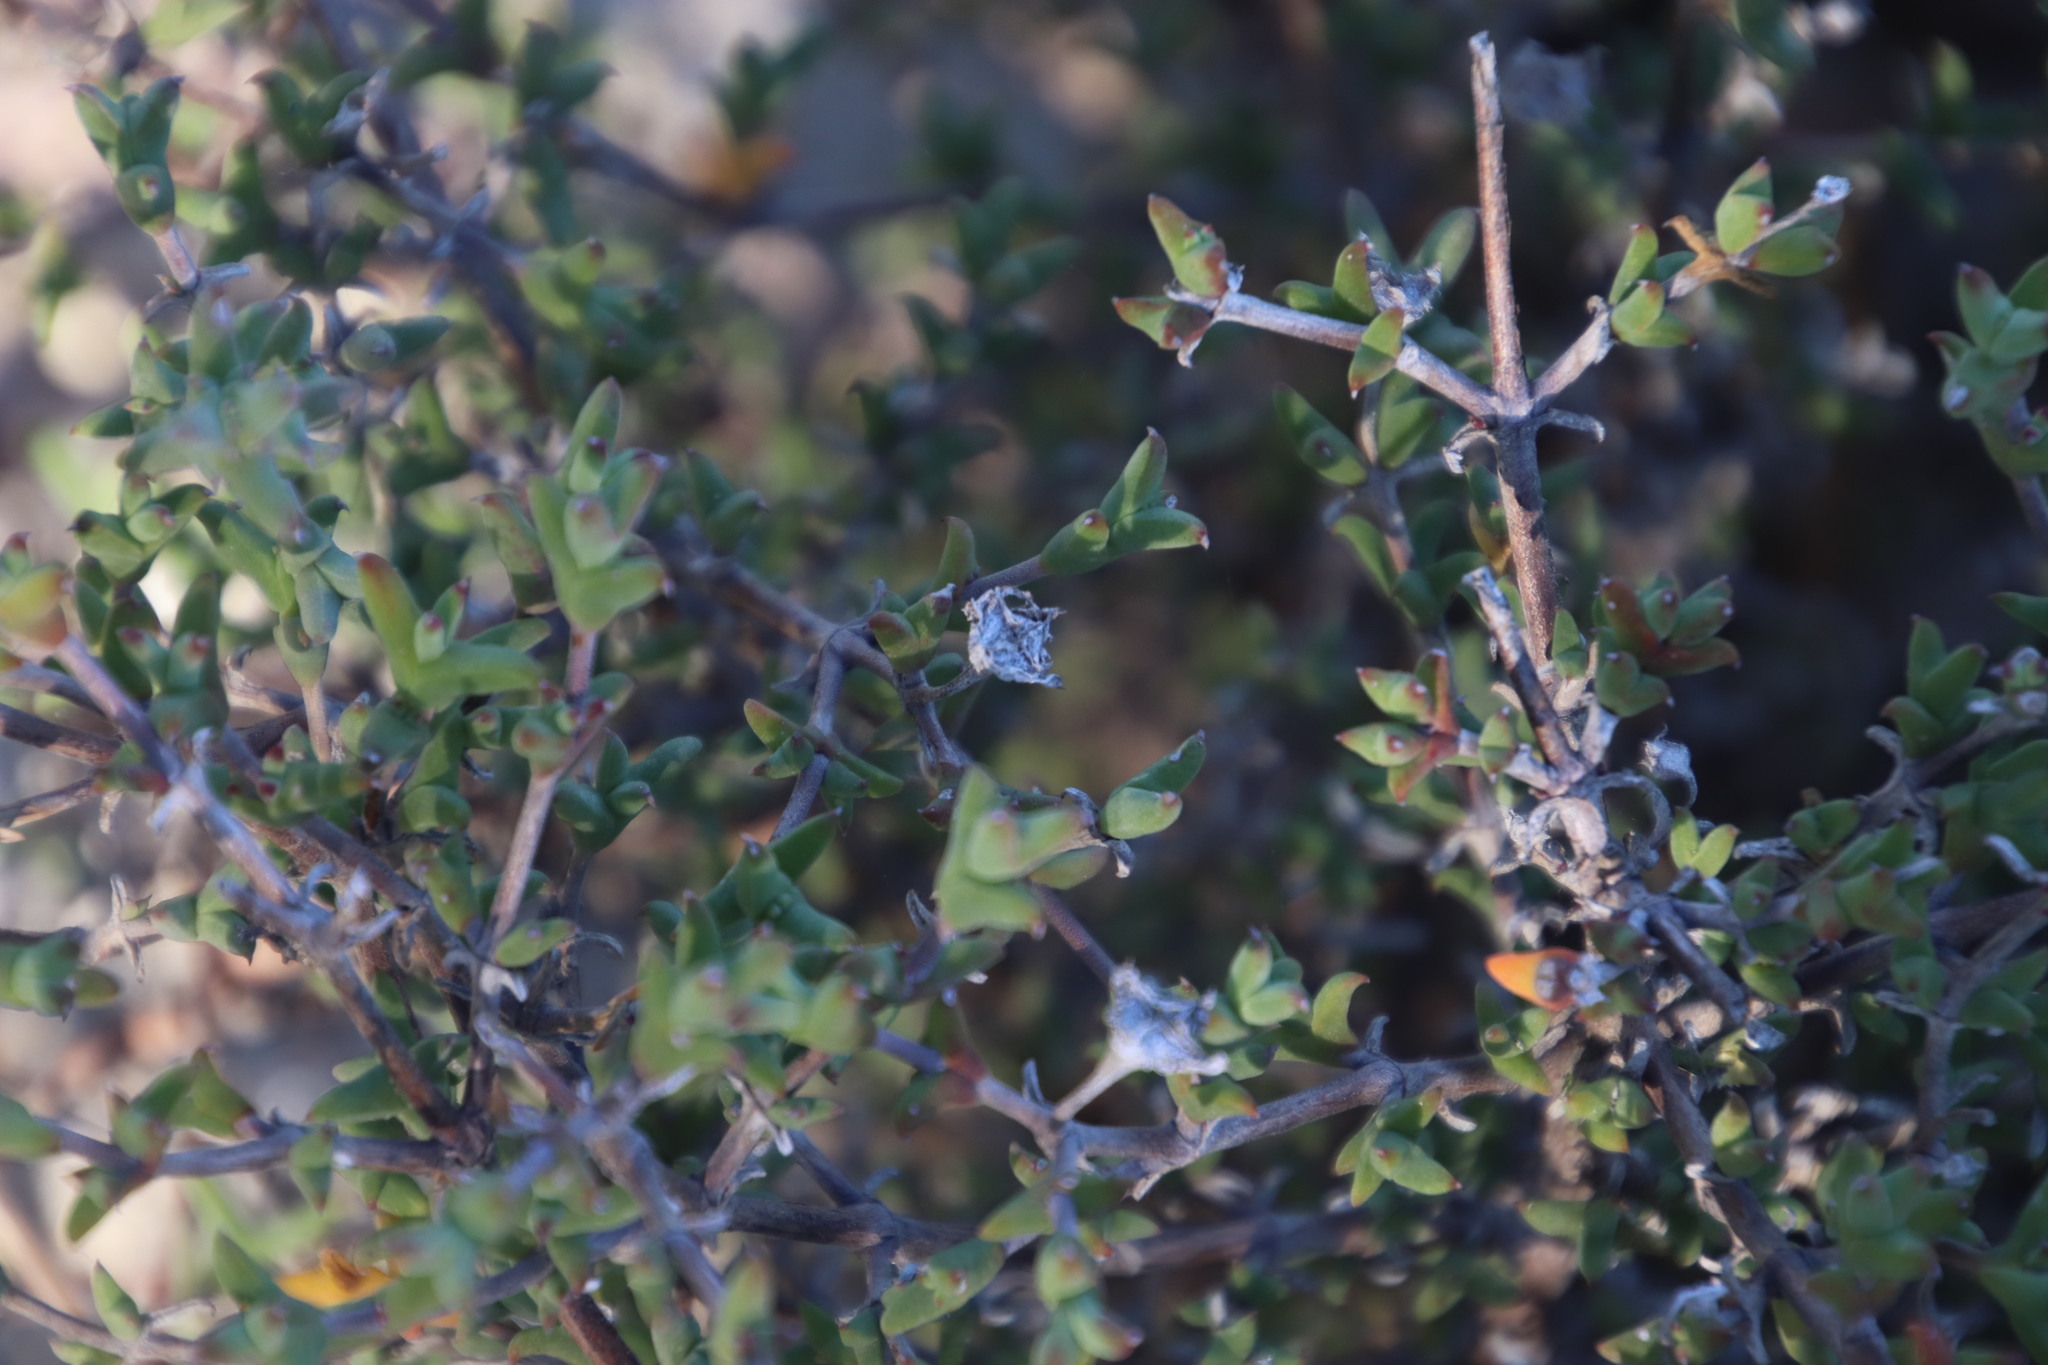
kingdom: Plantae
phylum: Tracheophyta
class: Magnoliopsida
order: Caryophyllales
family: Aizoaceae
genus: Delosperma
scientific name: Delosperma asperulum
